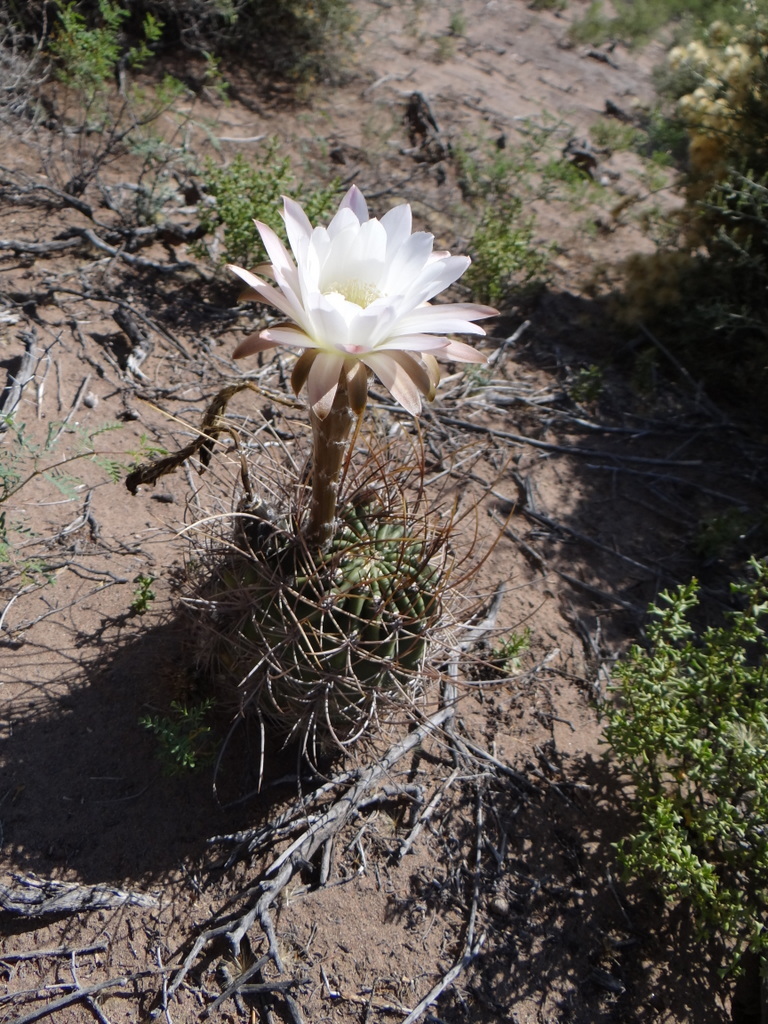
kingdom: Plantae
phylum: Tracheophyta
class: Magnoliopsida
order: Caryophyllales
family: Cactaceae
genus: Acanthocalycium
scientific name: Acanthocalycium leucanthum
